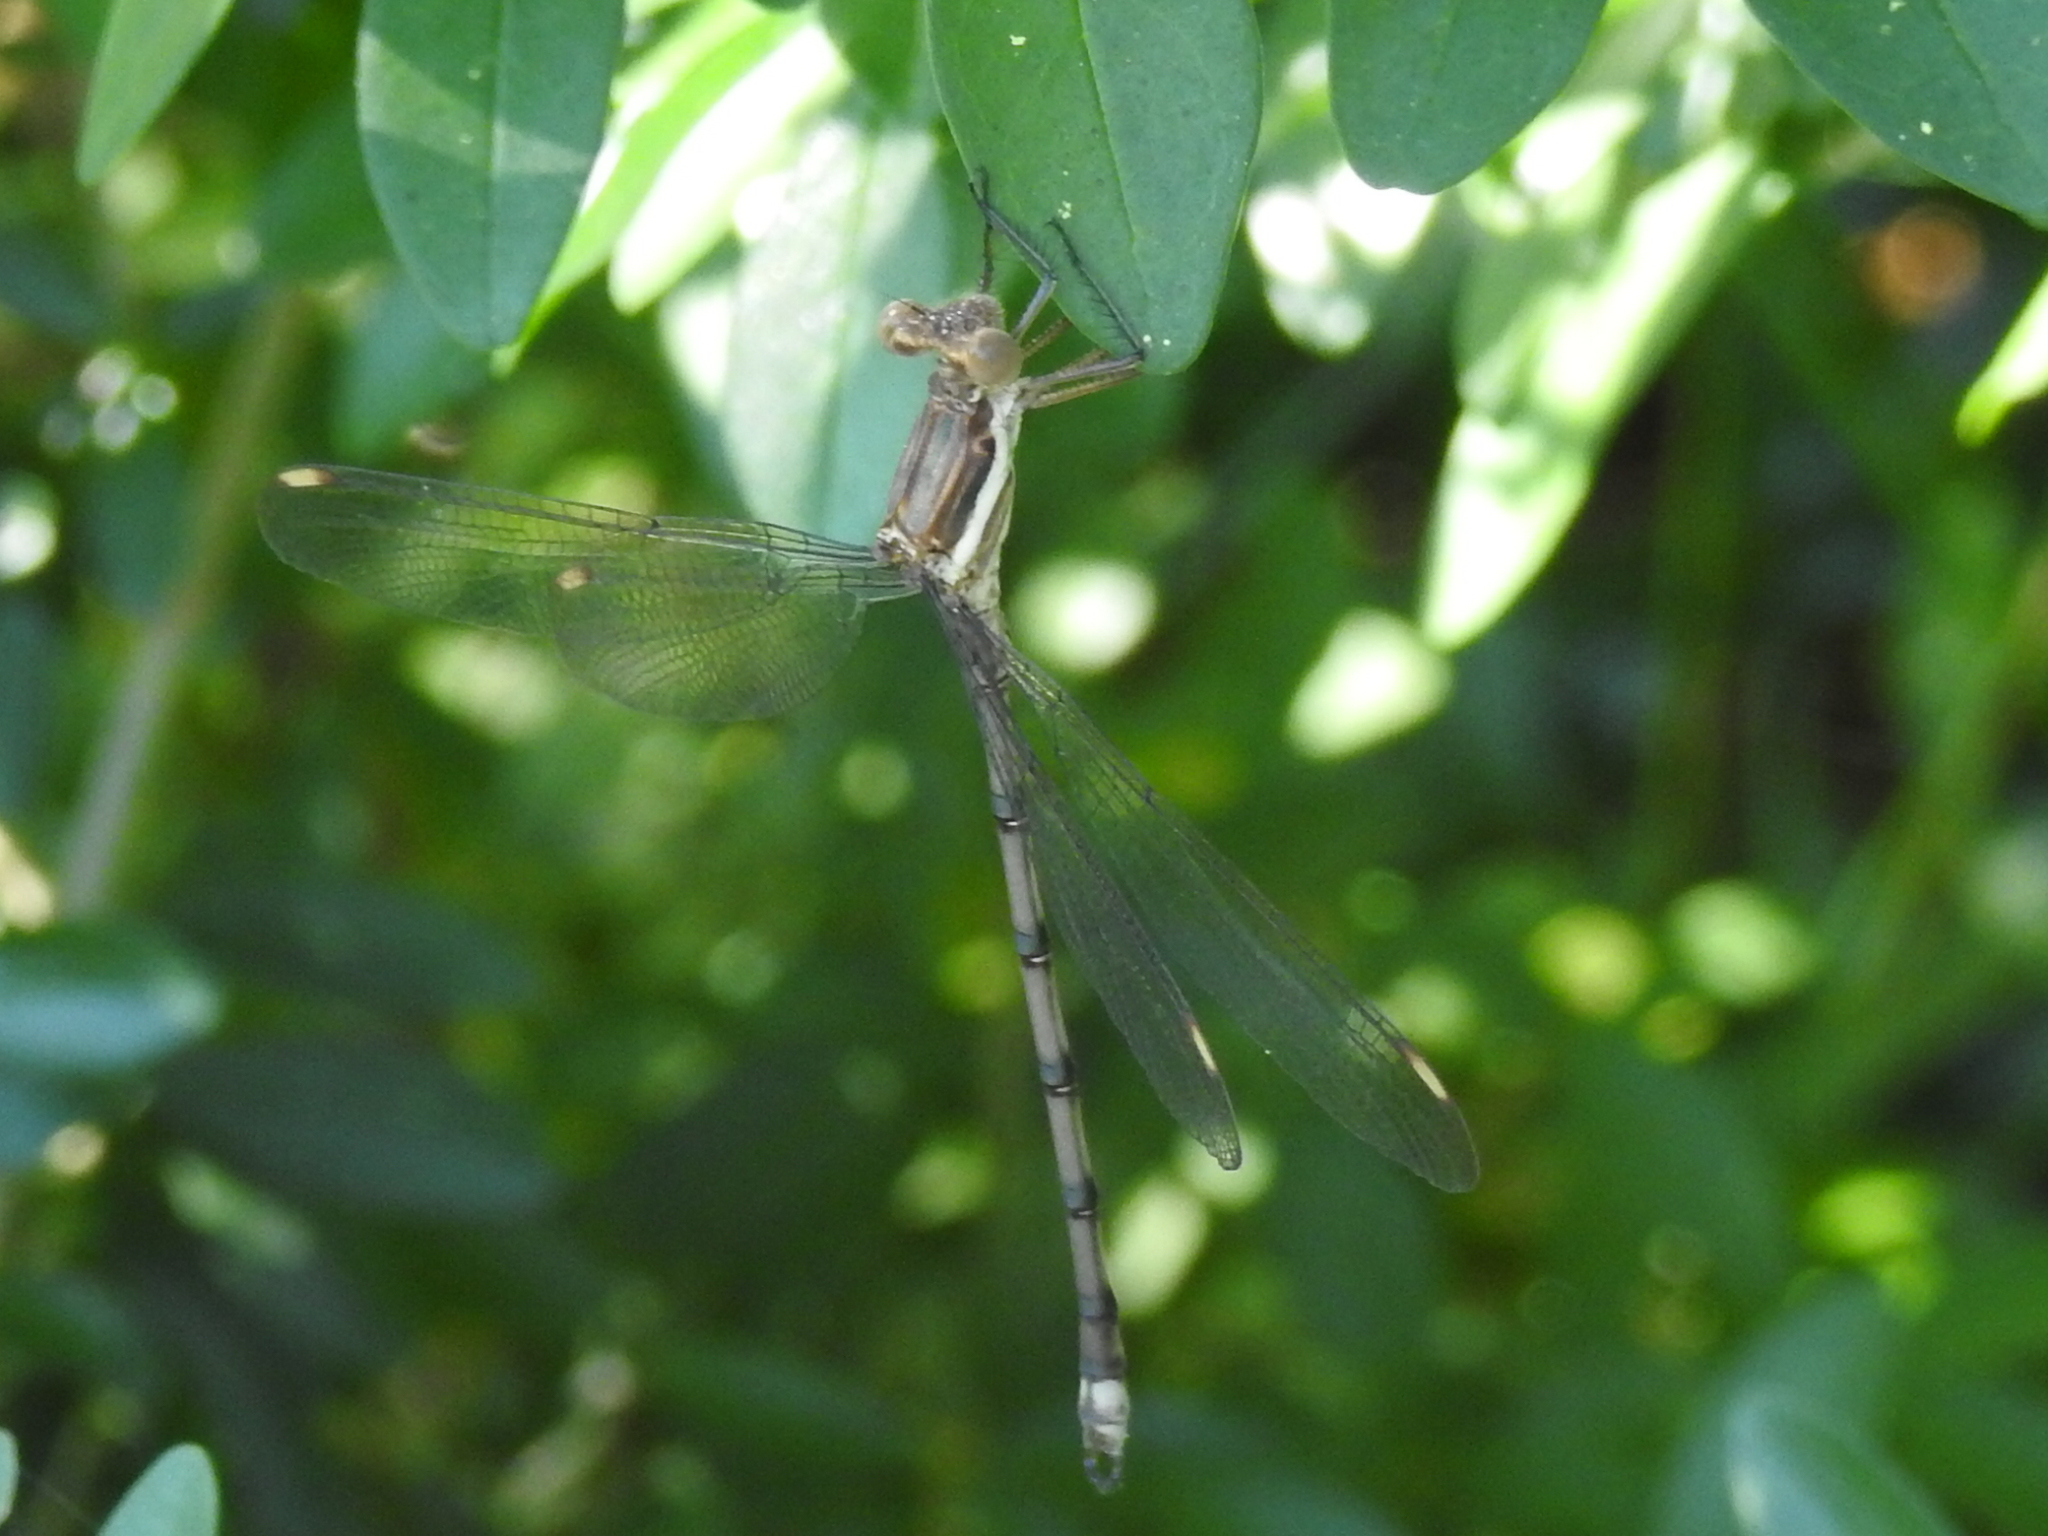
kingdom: Animalia
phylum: Arthropoda
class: Insecta
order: Odonata
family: Lestidae
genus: Archilestes
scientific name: Archilestes grandis
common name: Great spreadwing
